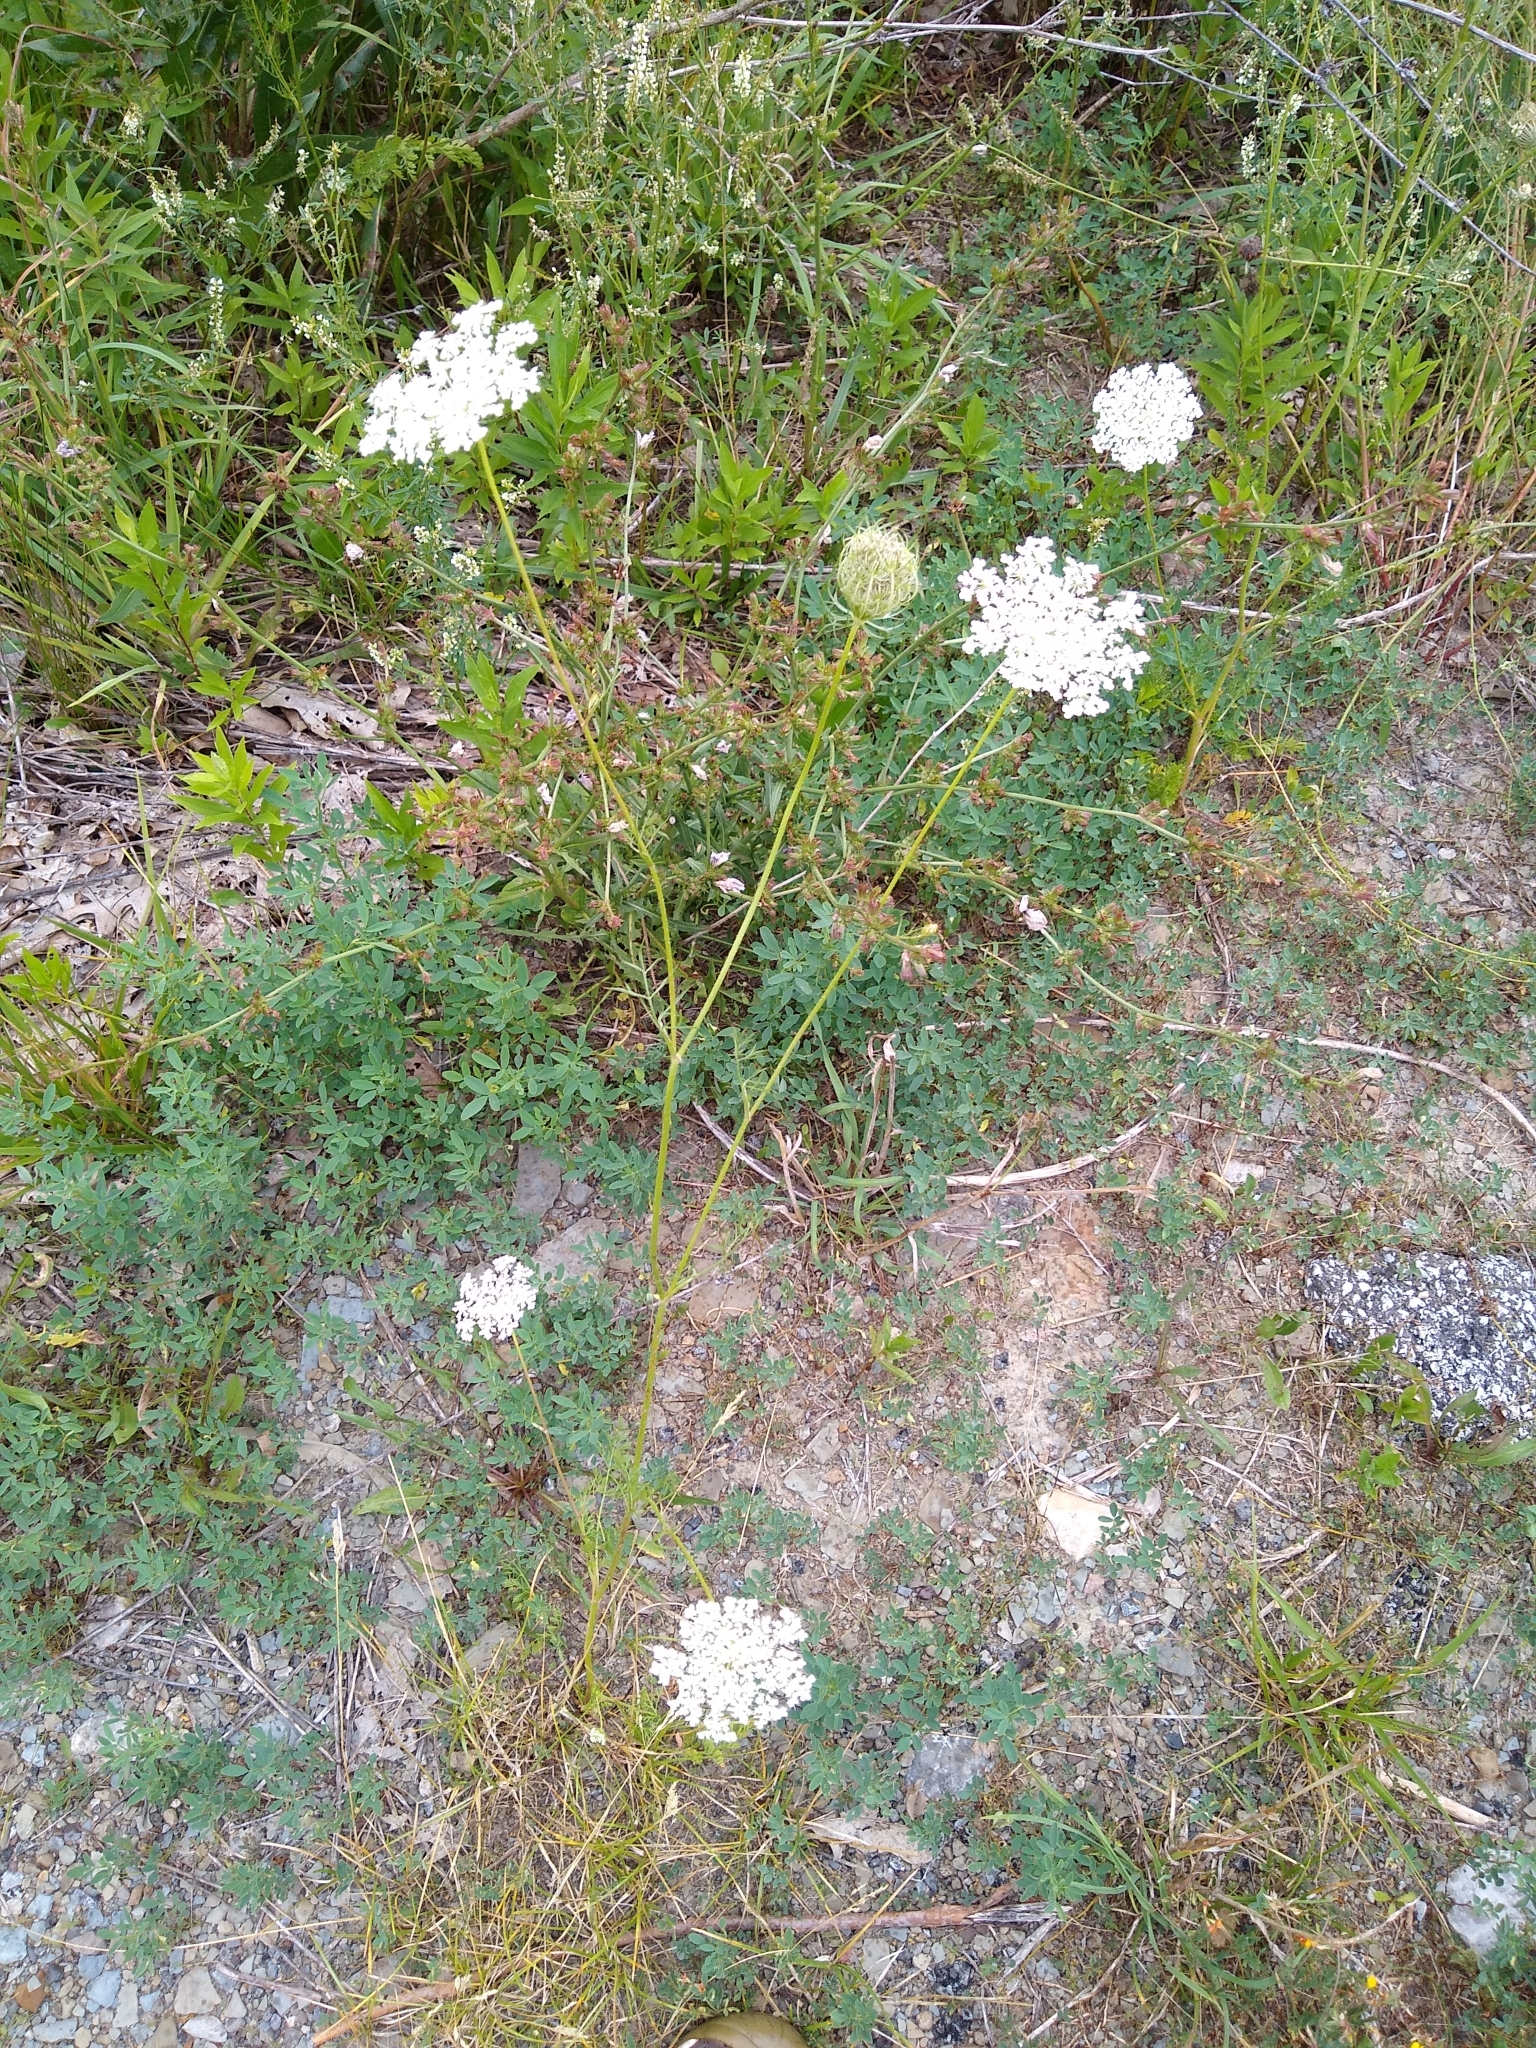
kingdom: Plantae
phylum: Tracheophyta
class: Magnoliopsida
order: Apiales
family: Apiaceae
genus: Daucus
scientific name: Daucus carota
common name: Wild carrot
